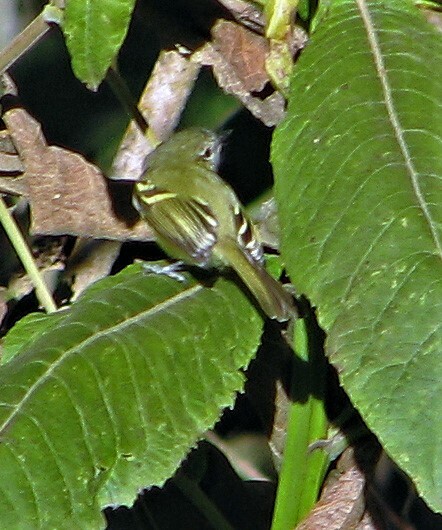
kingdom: Animalia
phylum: Chordata
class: Aves
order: Passeriformes
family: Tyrannidae
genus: Phylloscartes
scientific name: Phylloscartes ventralis
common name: Mottle-cheeked tyrannulet
